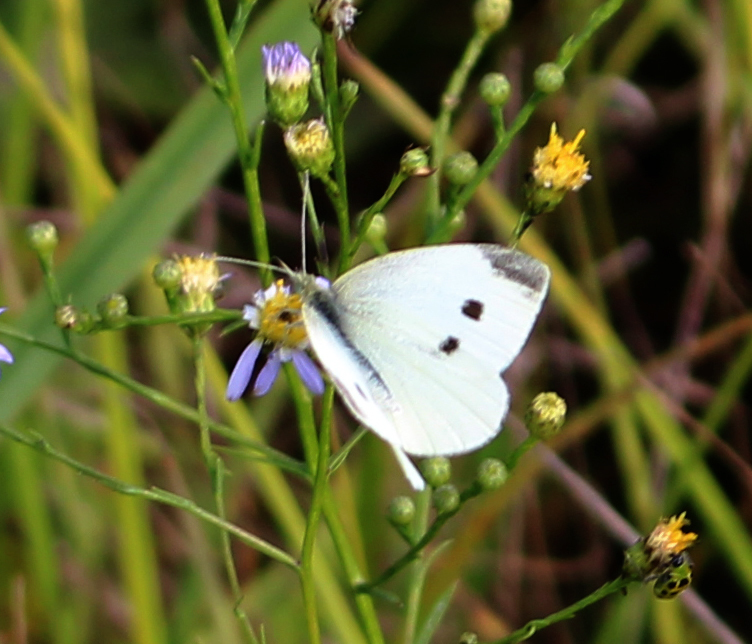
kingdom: Animalia
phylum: Arthropoda
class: Insecta
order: Lepidoptera
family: Pieridae
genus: Pieris
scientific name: Pieris rapae
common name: Small white
